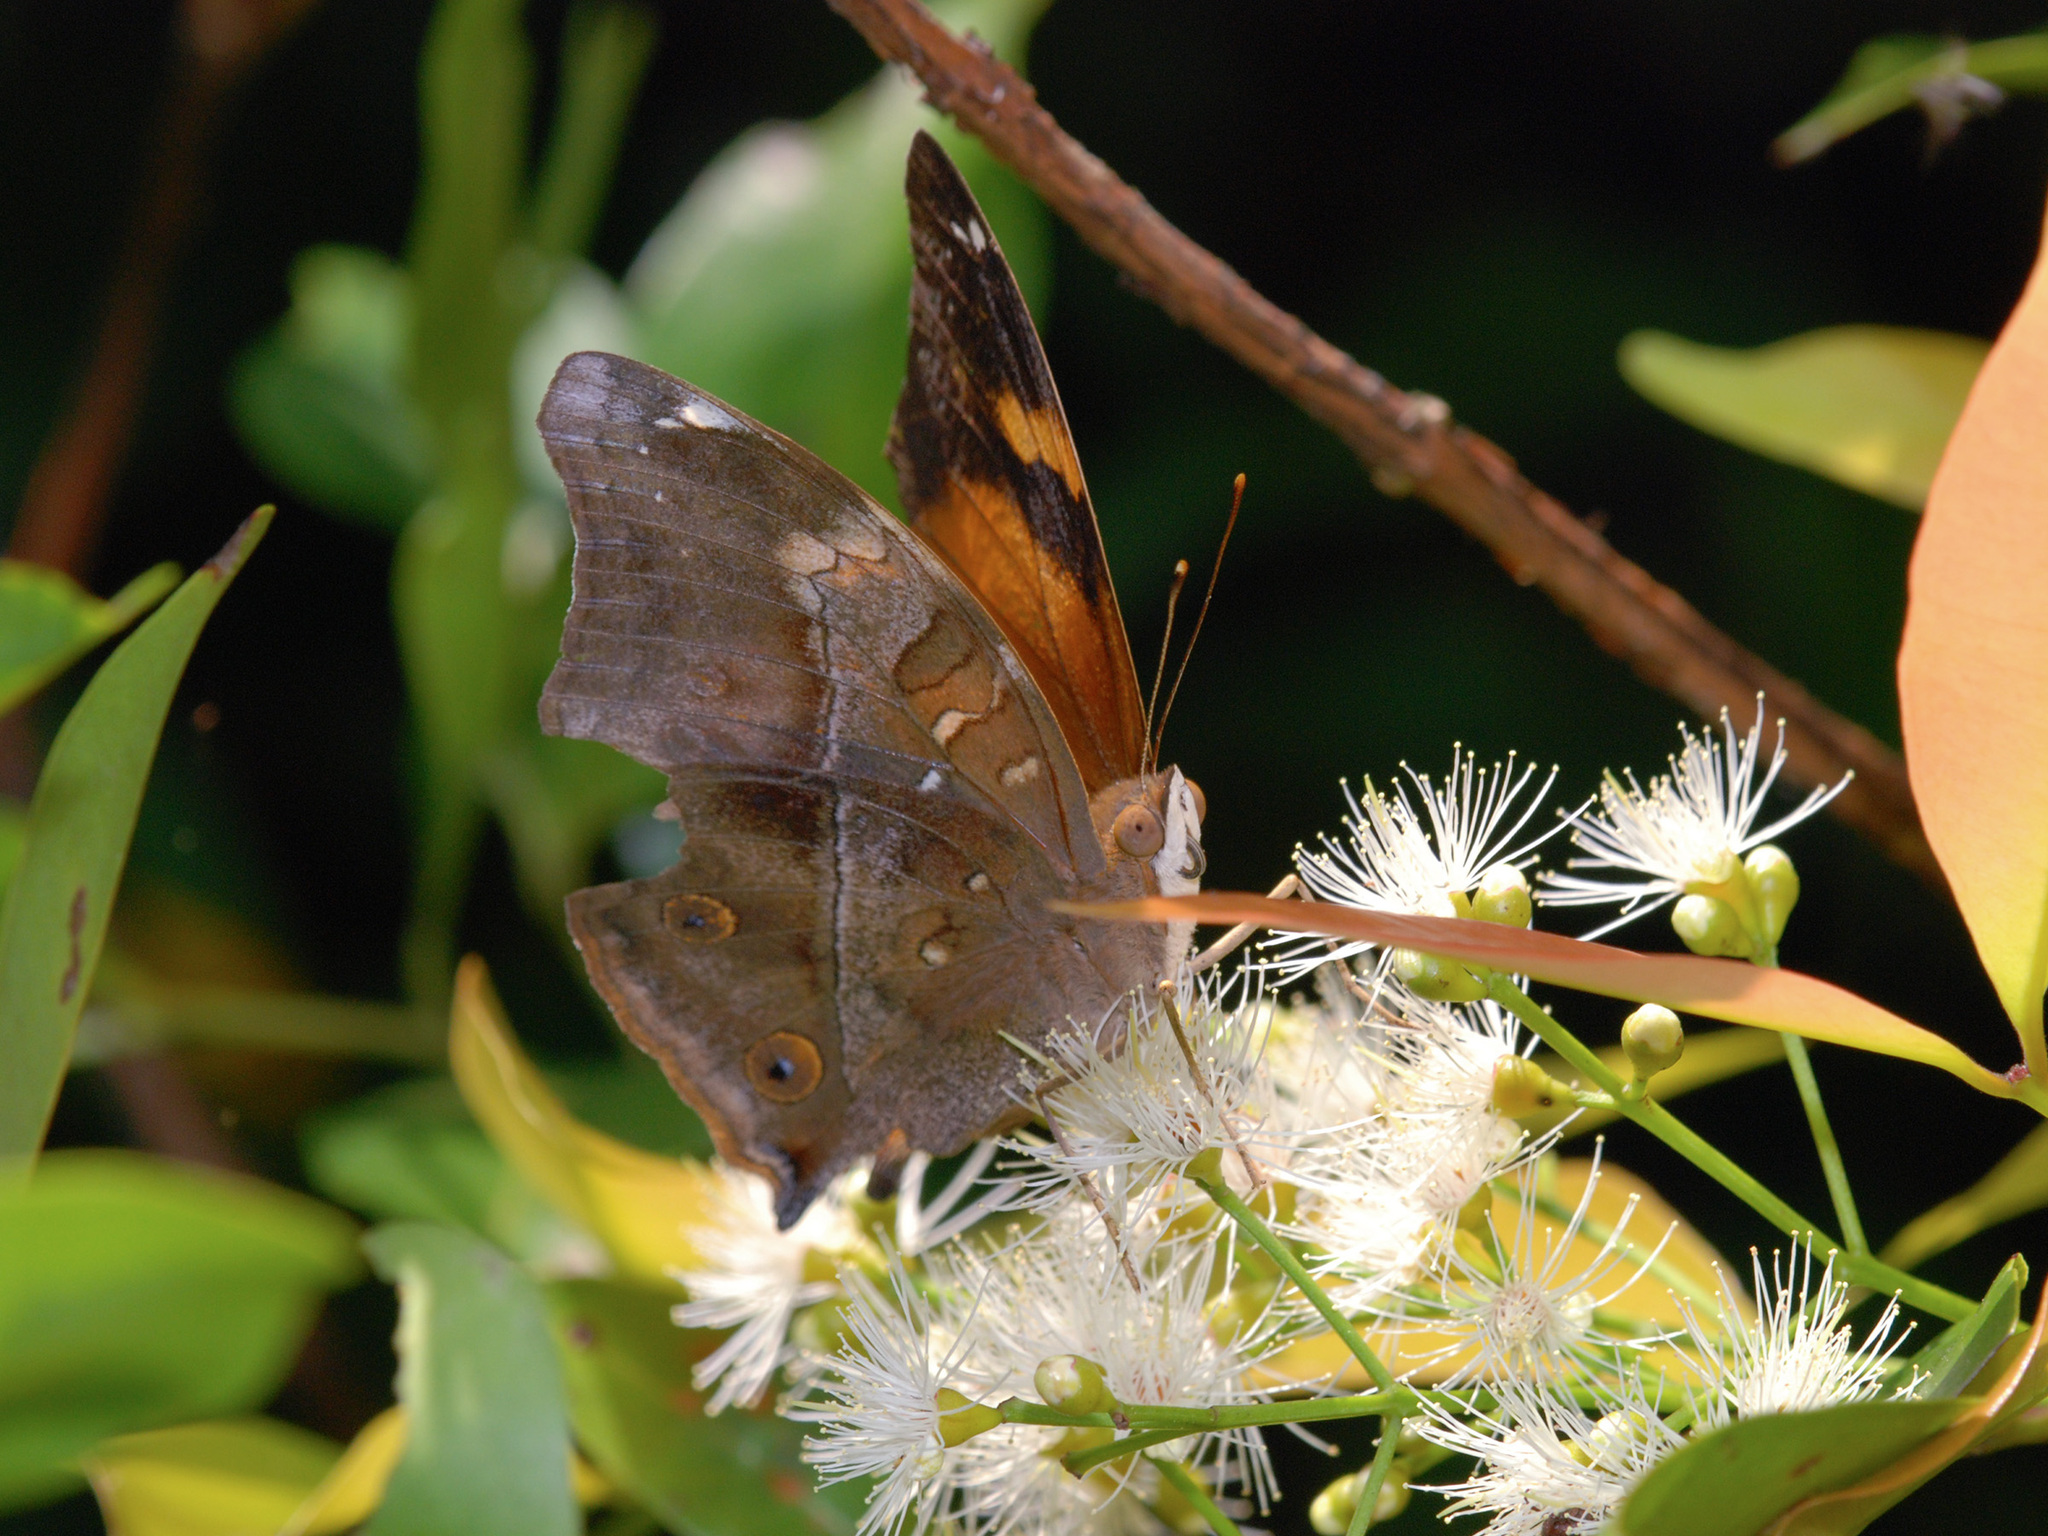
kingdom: Animalia
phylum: Arthropoda
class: Insecta
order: Lepidoptera
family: Nymphalidae
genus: Doleschallia
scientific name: Doleschallia bisaltide
